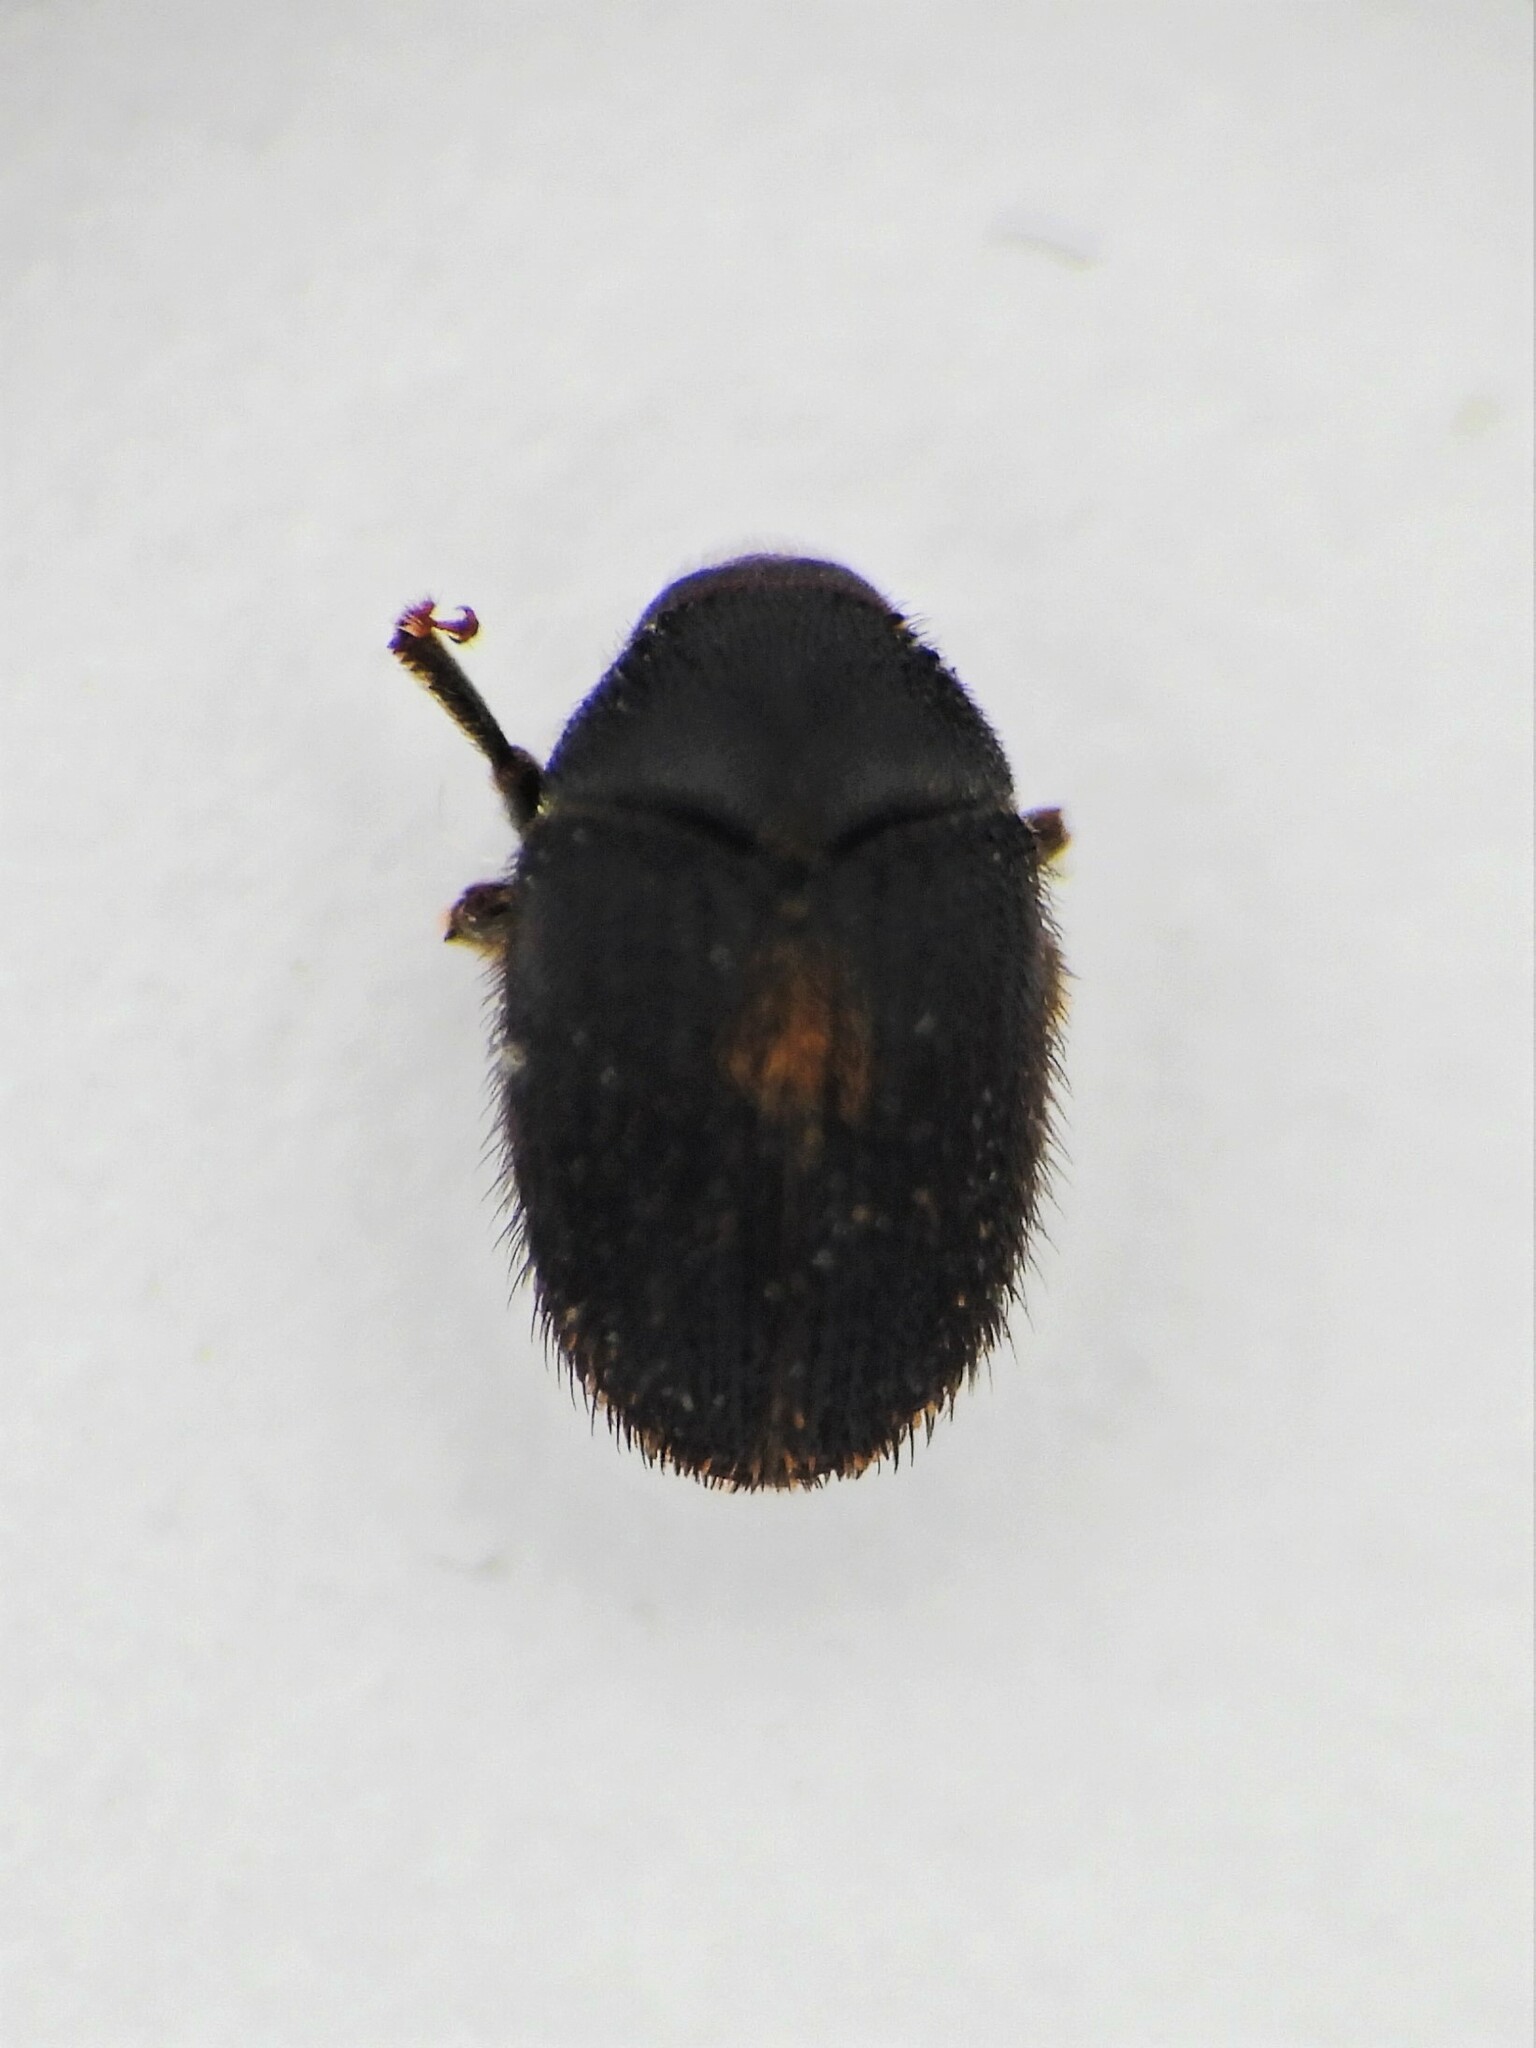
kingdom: Animalia
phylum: Arthropoda
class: Insecta
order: Coleoptera
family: Curculionidae
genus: Hylesinus
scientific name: Hylesinus toranio
